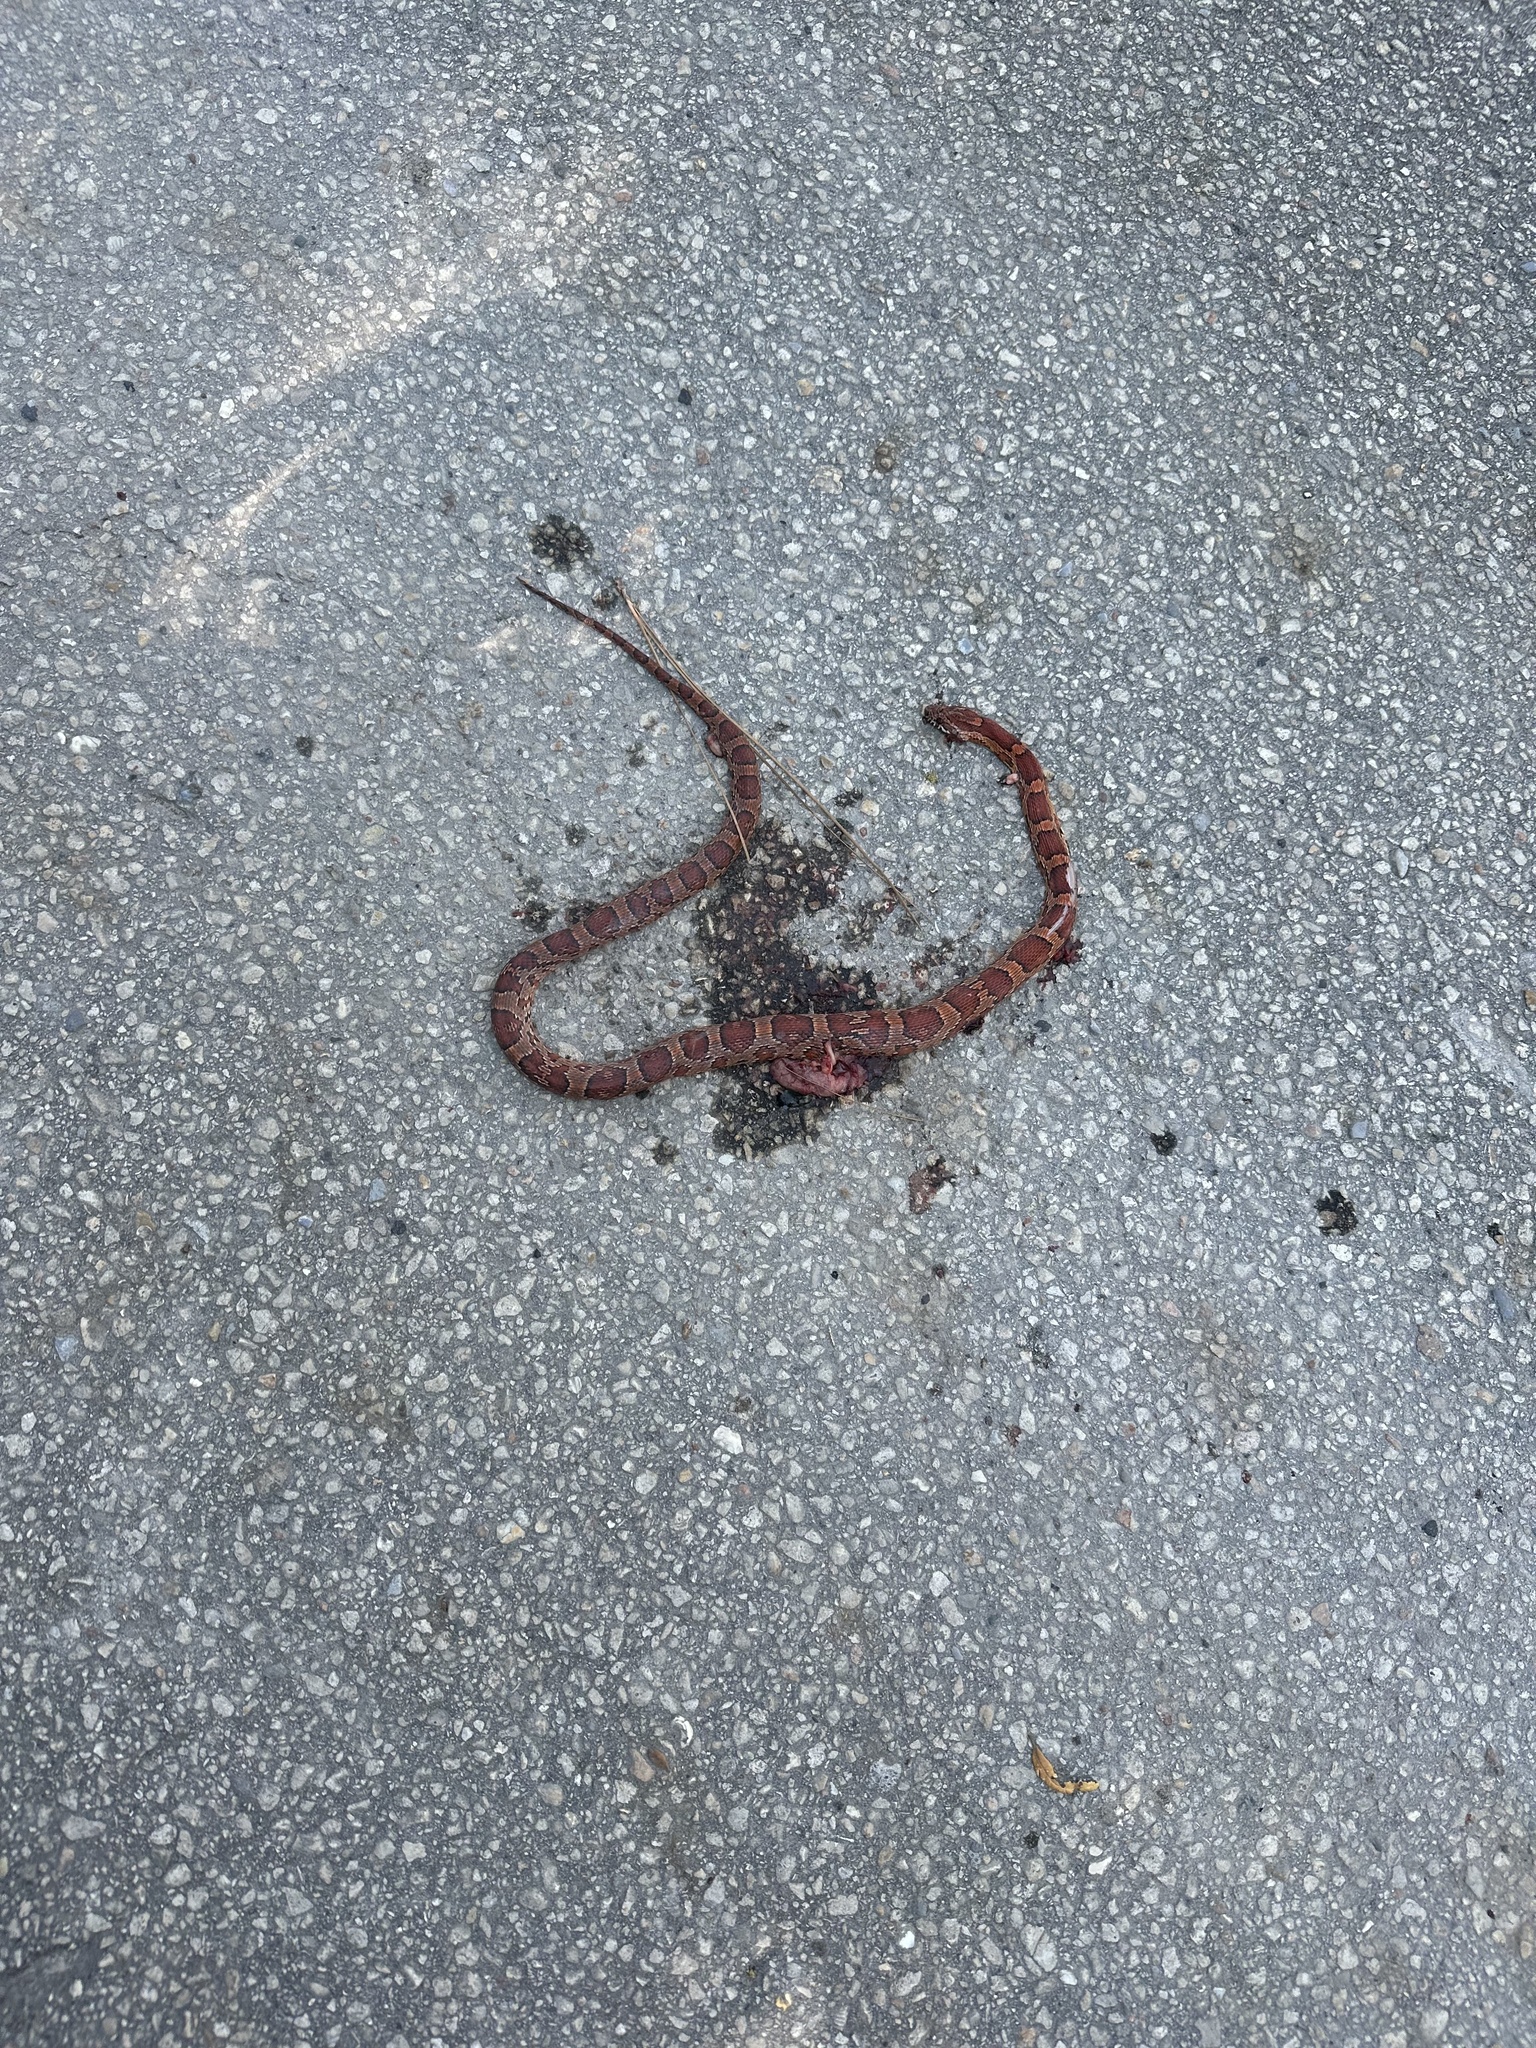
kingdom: Animalia
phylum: Chordata
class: Squamata
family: Colubridae
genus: Pantherophis
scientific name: Pantherophis guttatus
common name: Red cornsnake
